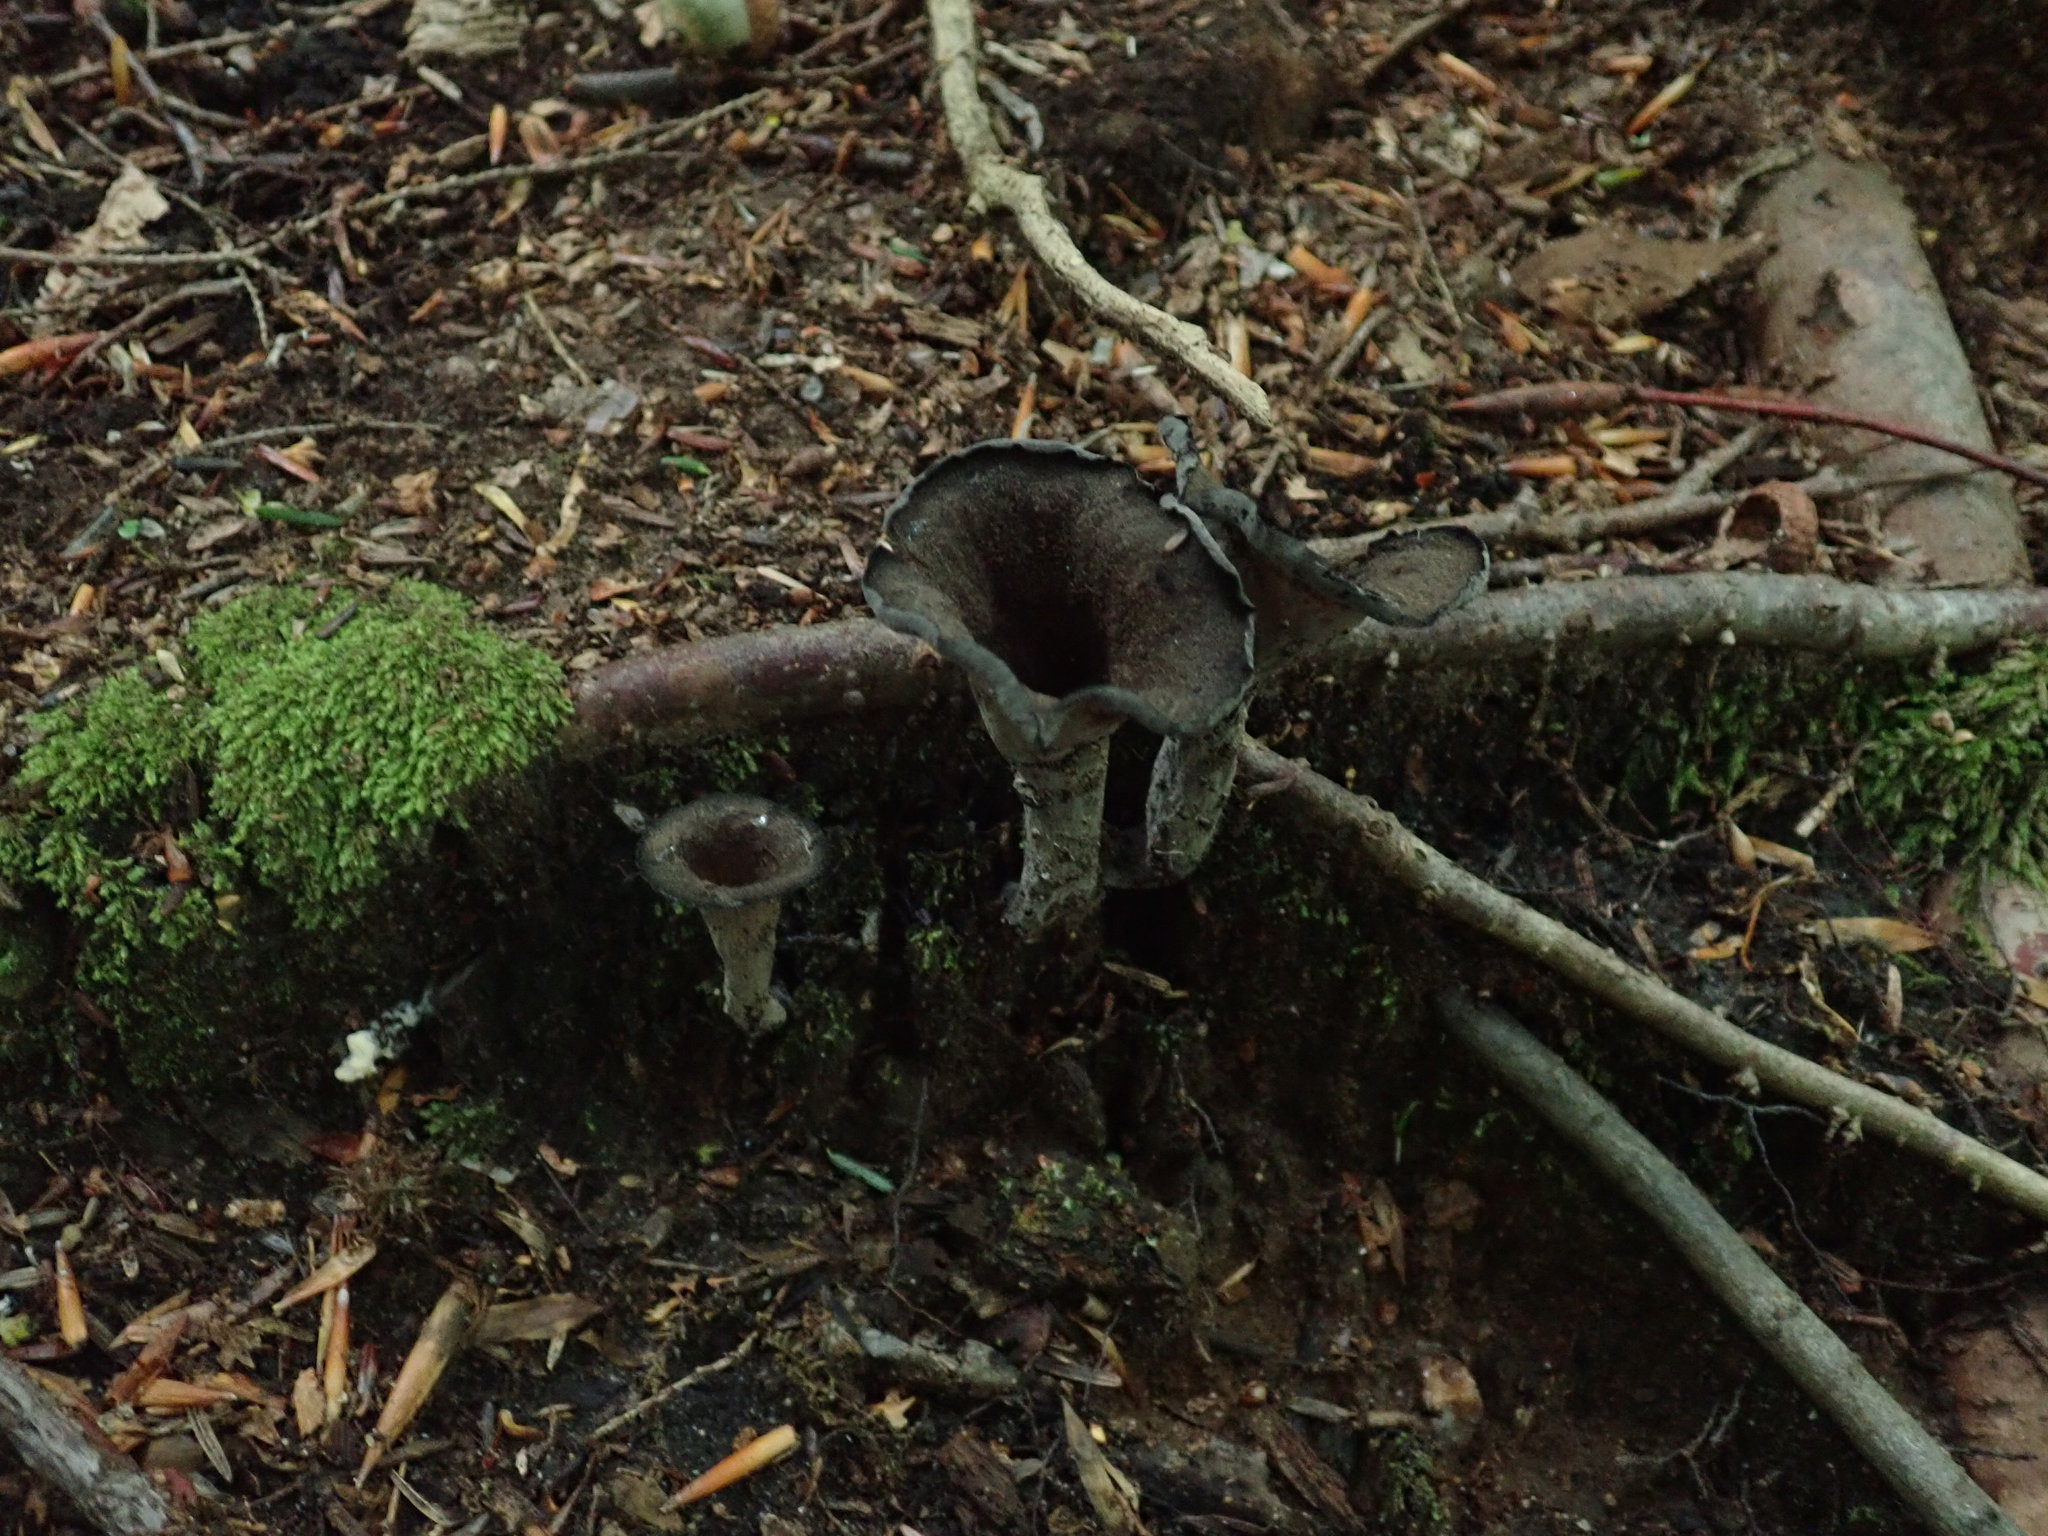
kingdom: Fungi
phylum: Basidiomycota
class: Agaricomycetes
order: Cantharellales
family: Hydnaceae
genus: Craterellus
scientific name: Craterellus cornucopioides
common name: Horn of plenty
